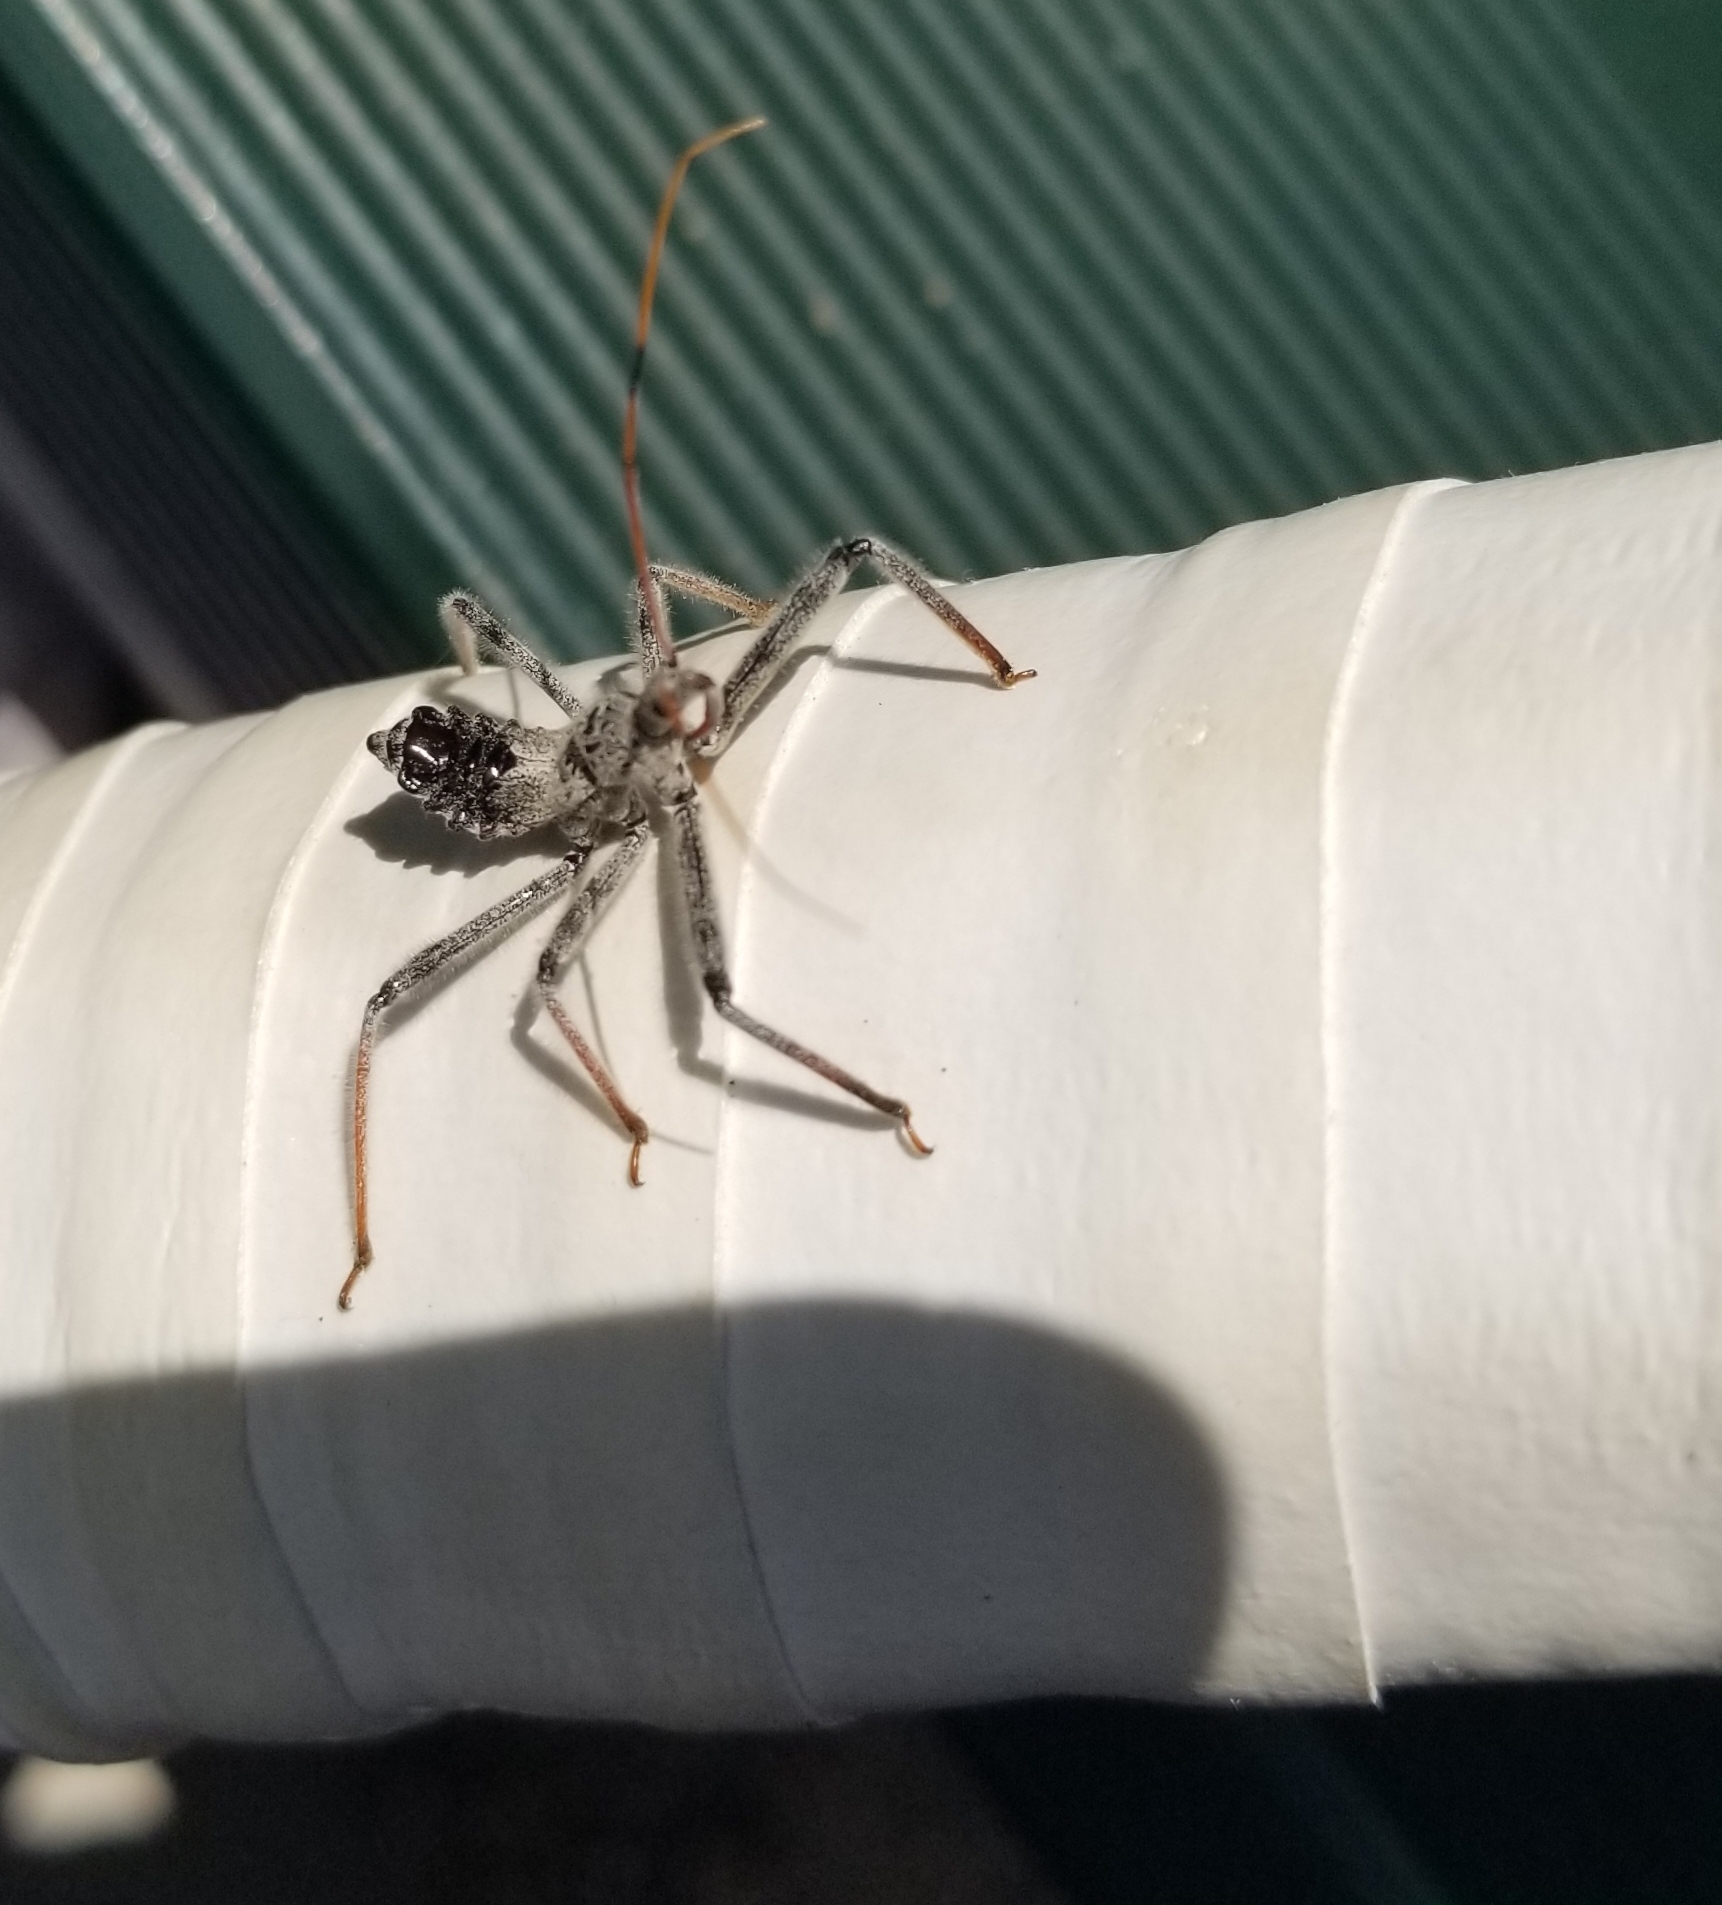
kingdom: Animalia
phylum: Arthropoda
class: Insecta
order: Hemiptera
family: Reduviidae
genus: Arilus
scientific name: Arilus cristatus
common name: North american wheel bug
